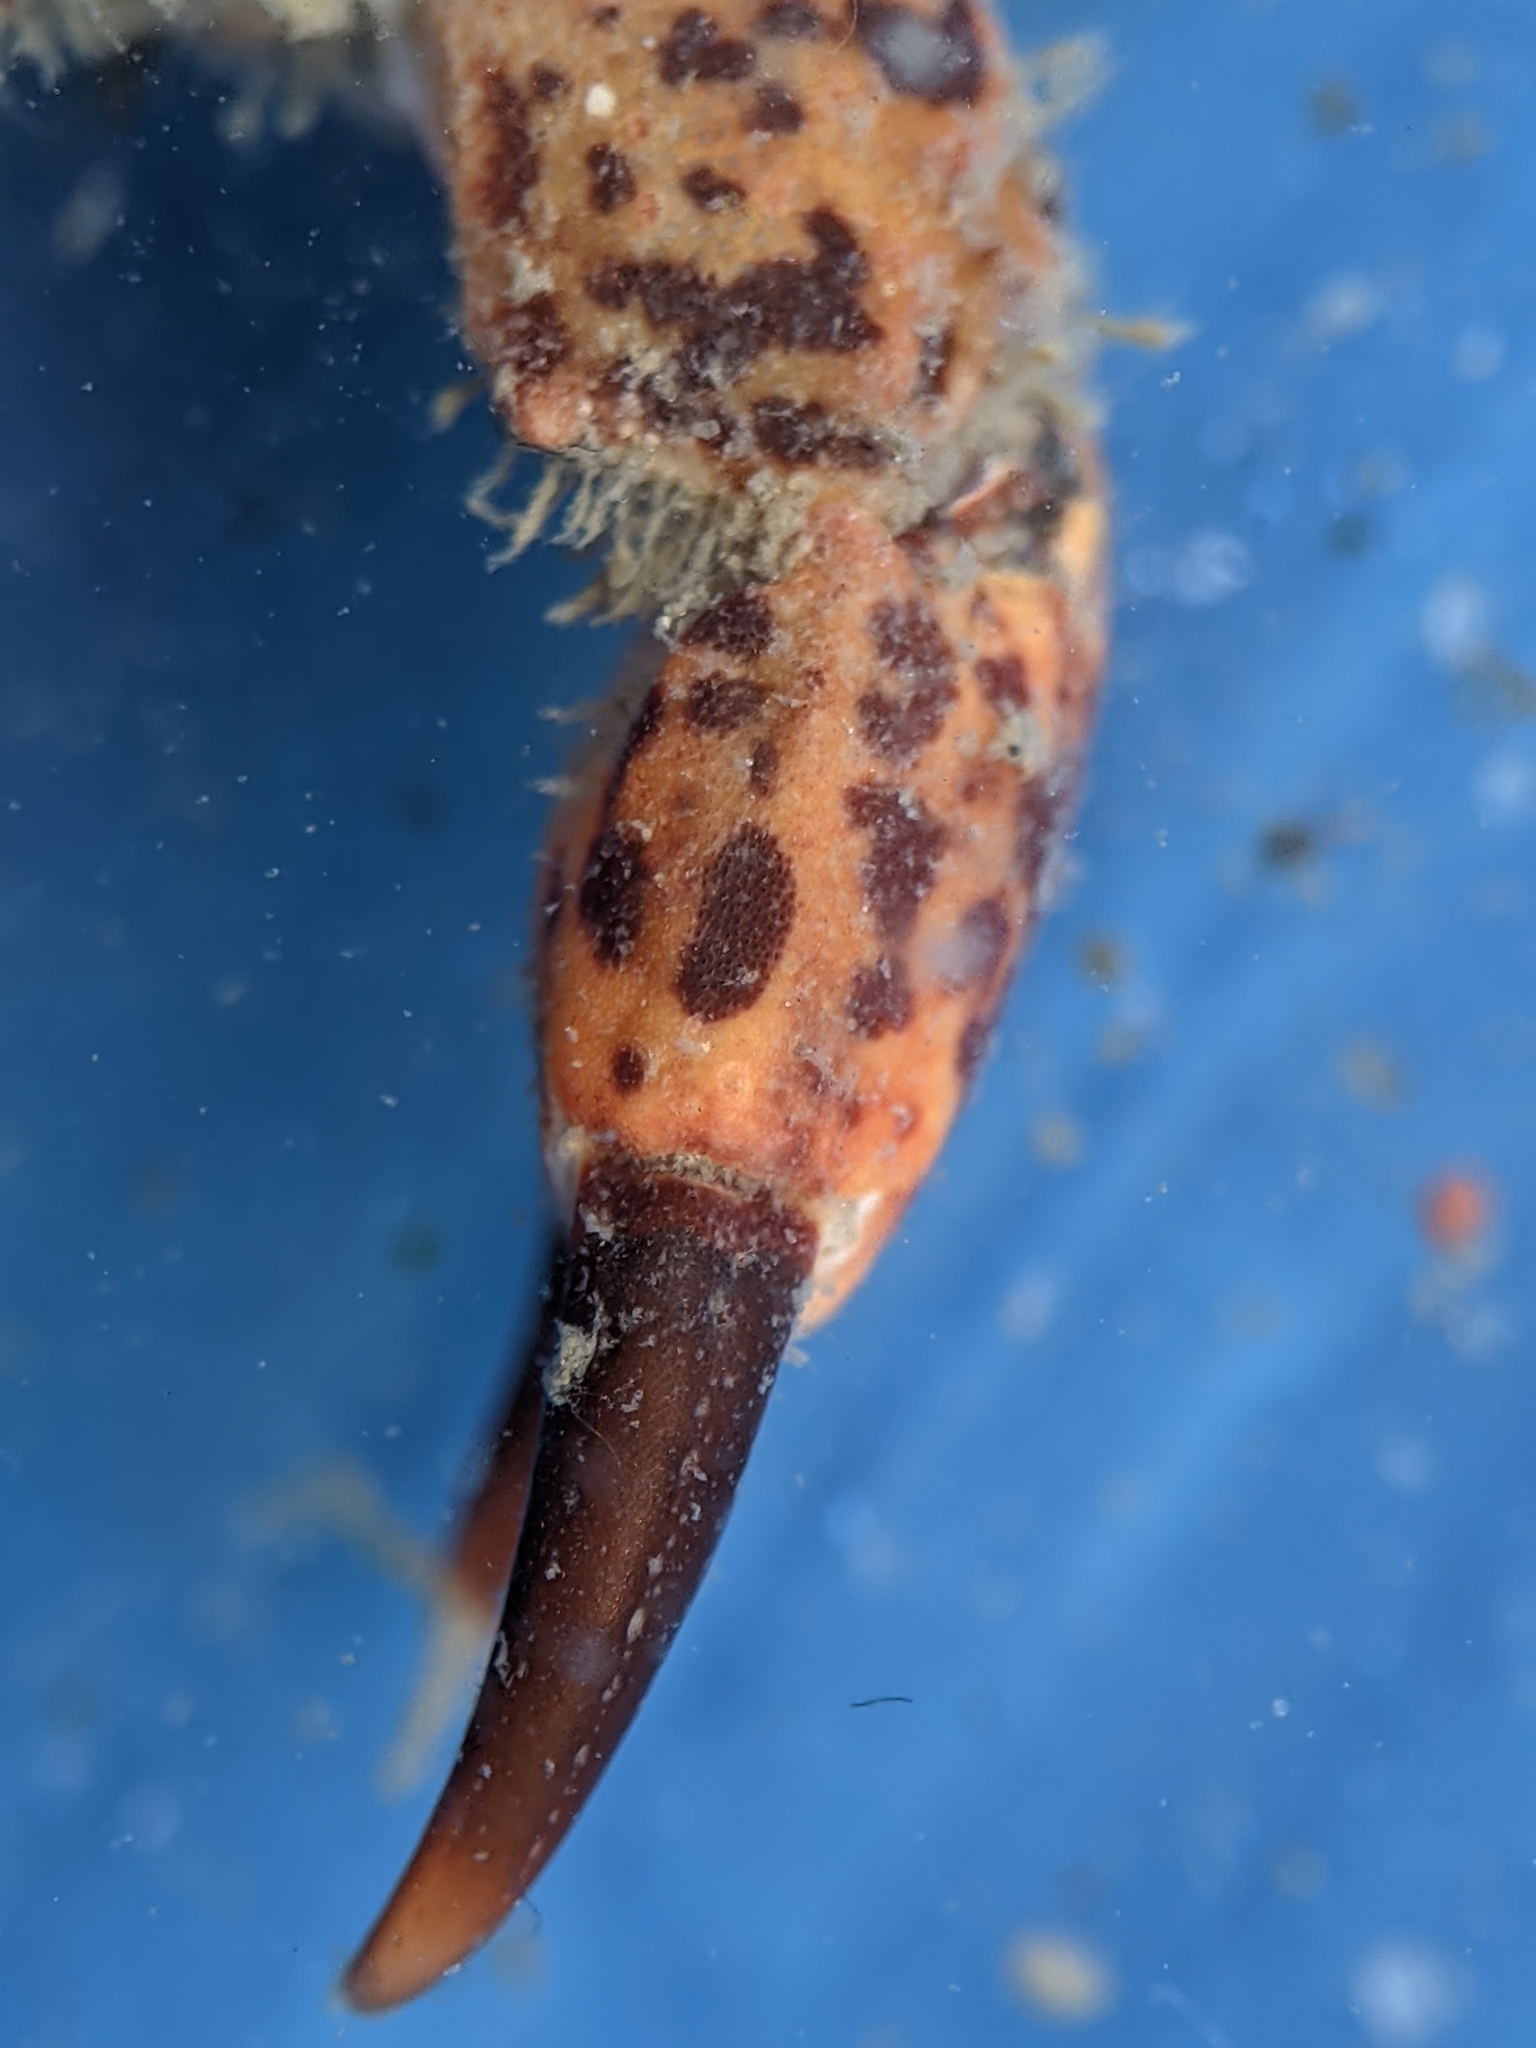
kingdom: Animalia
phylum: Arthropoda
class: Malacostraca
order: Decapoda
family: Panopeidae
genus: Lophopanopeus
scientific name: Lophopanopeus bellus
